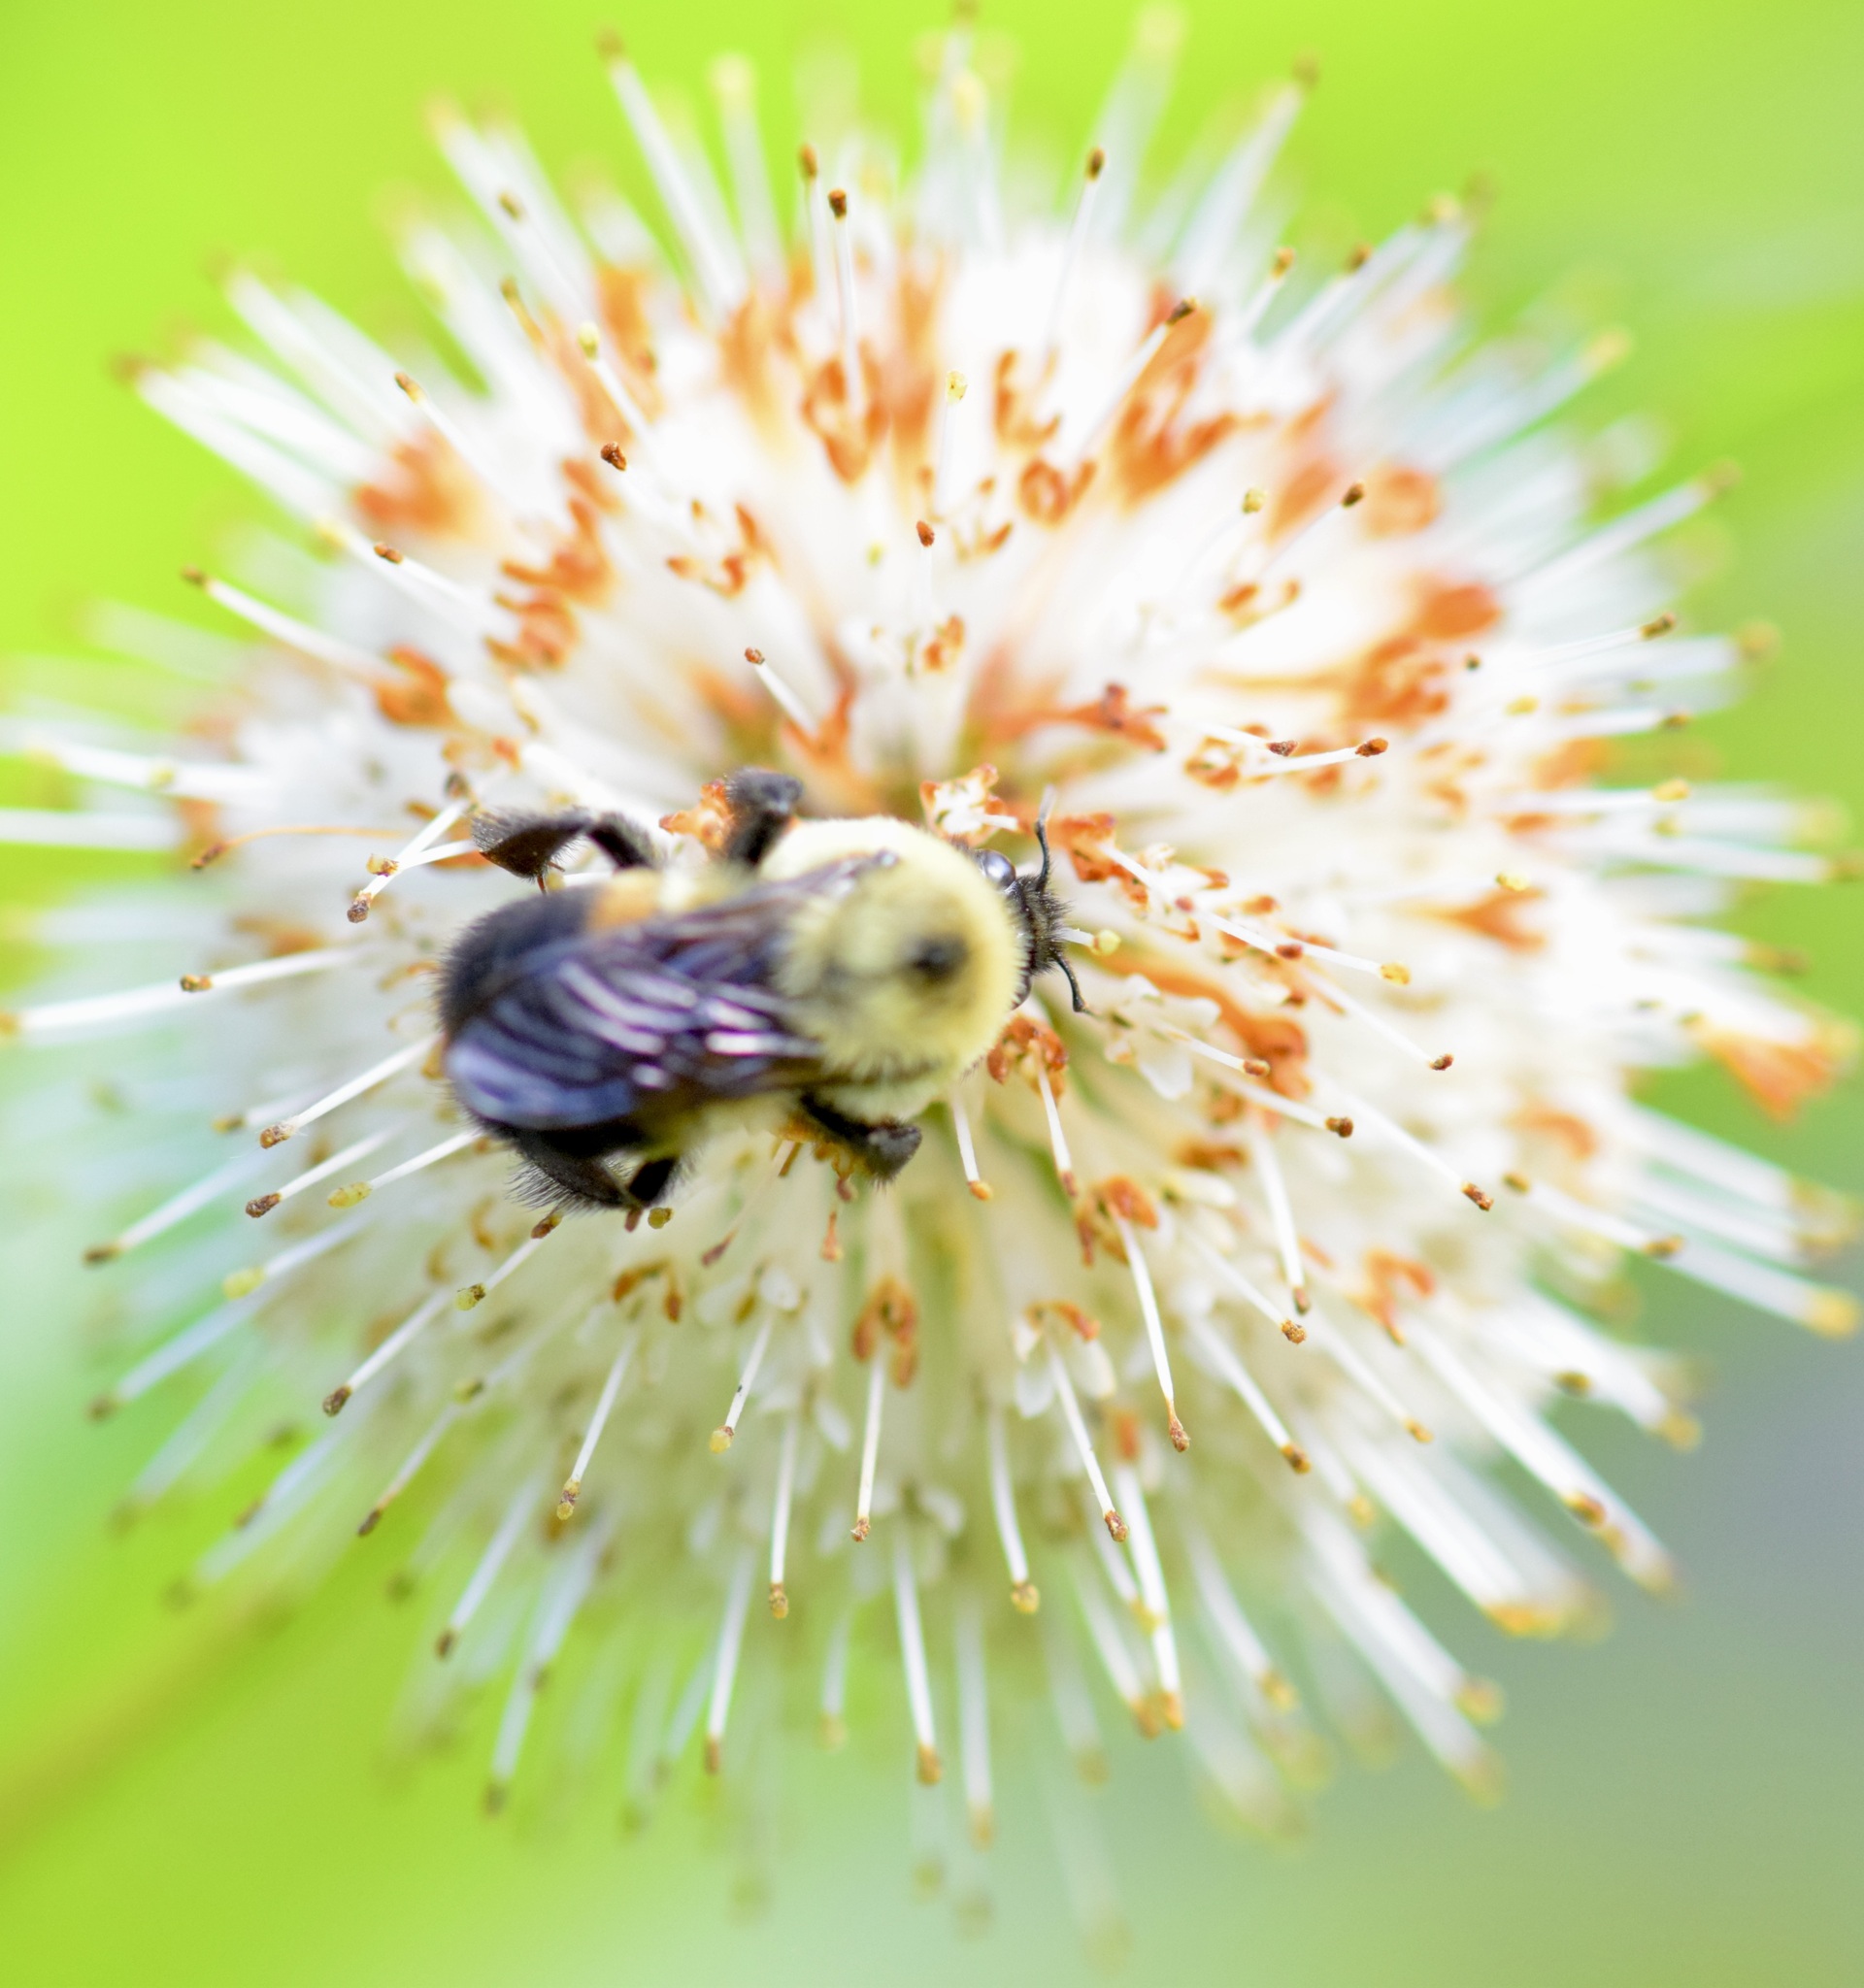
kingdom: Animalia
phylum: Arthropoda
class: Insecta
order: Hymenoptera
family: Apidae
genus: Bombus
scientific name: Bombus griseocollis
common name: Brown-belted bumble bee
